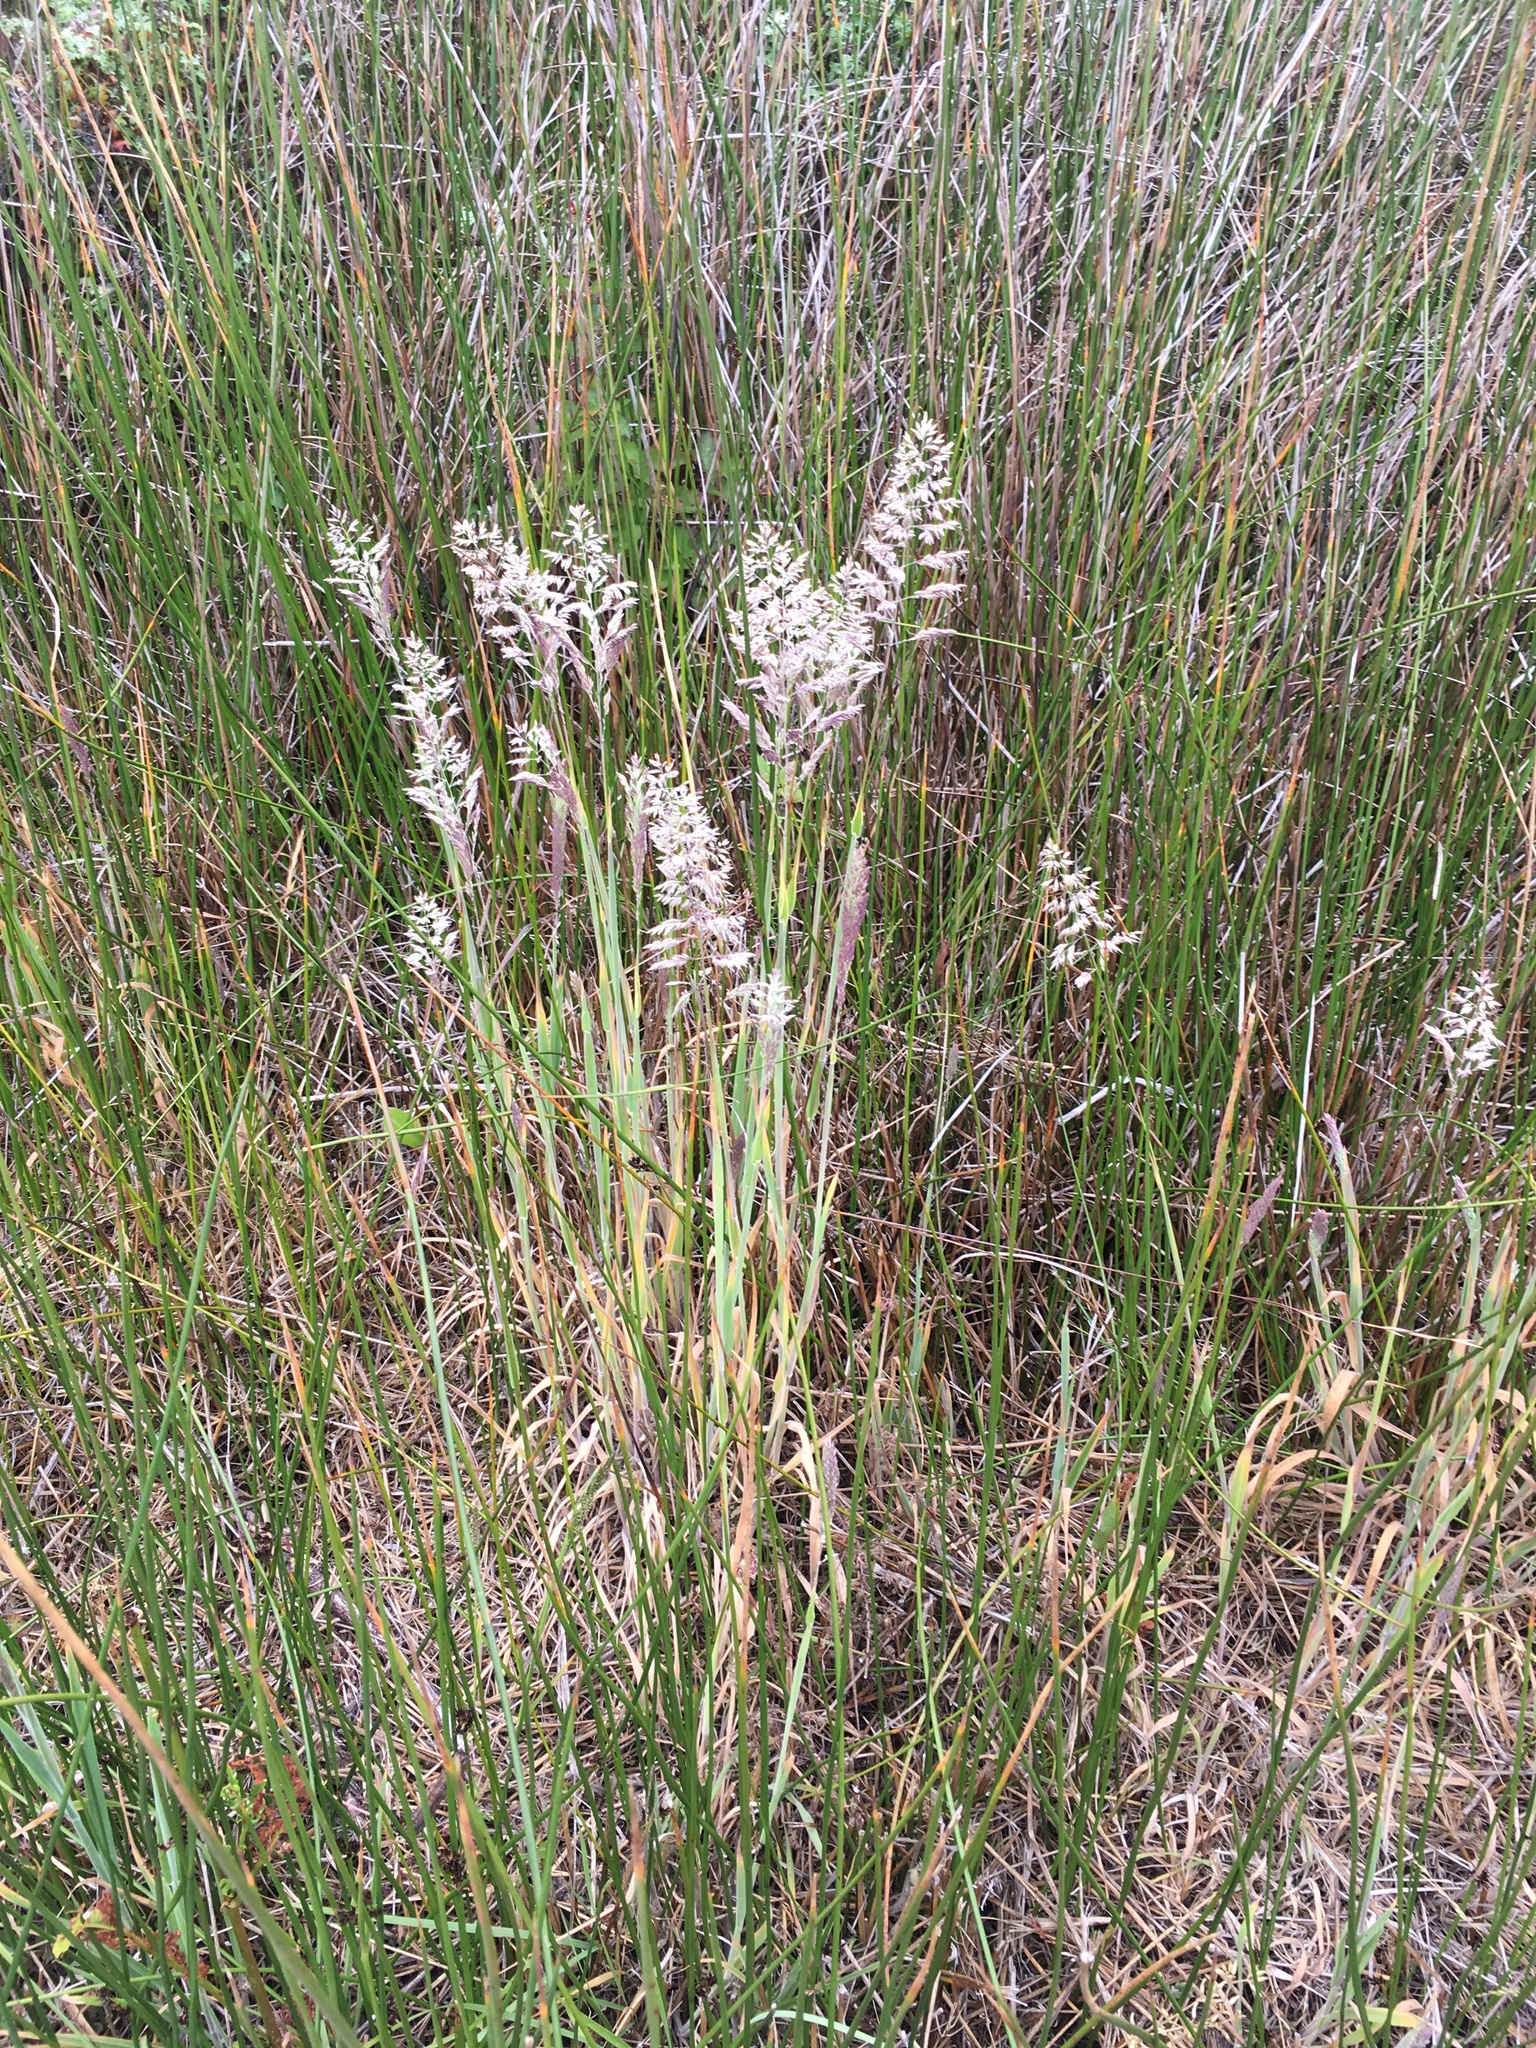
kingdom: Plantae
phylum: Tracheophyta
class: Liliopsida
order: Poales
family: Poaceae
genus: Holcus
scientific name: Holcus lanatus
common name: Yorkshire-fog
